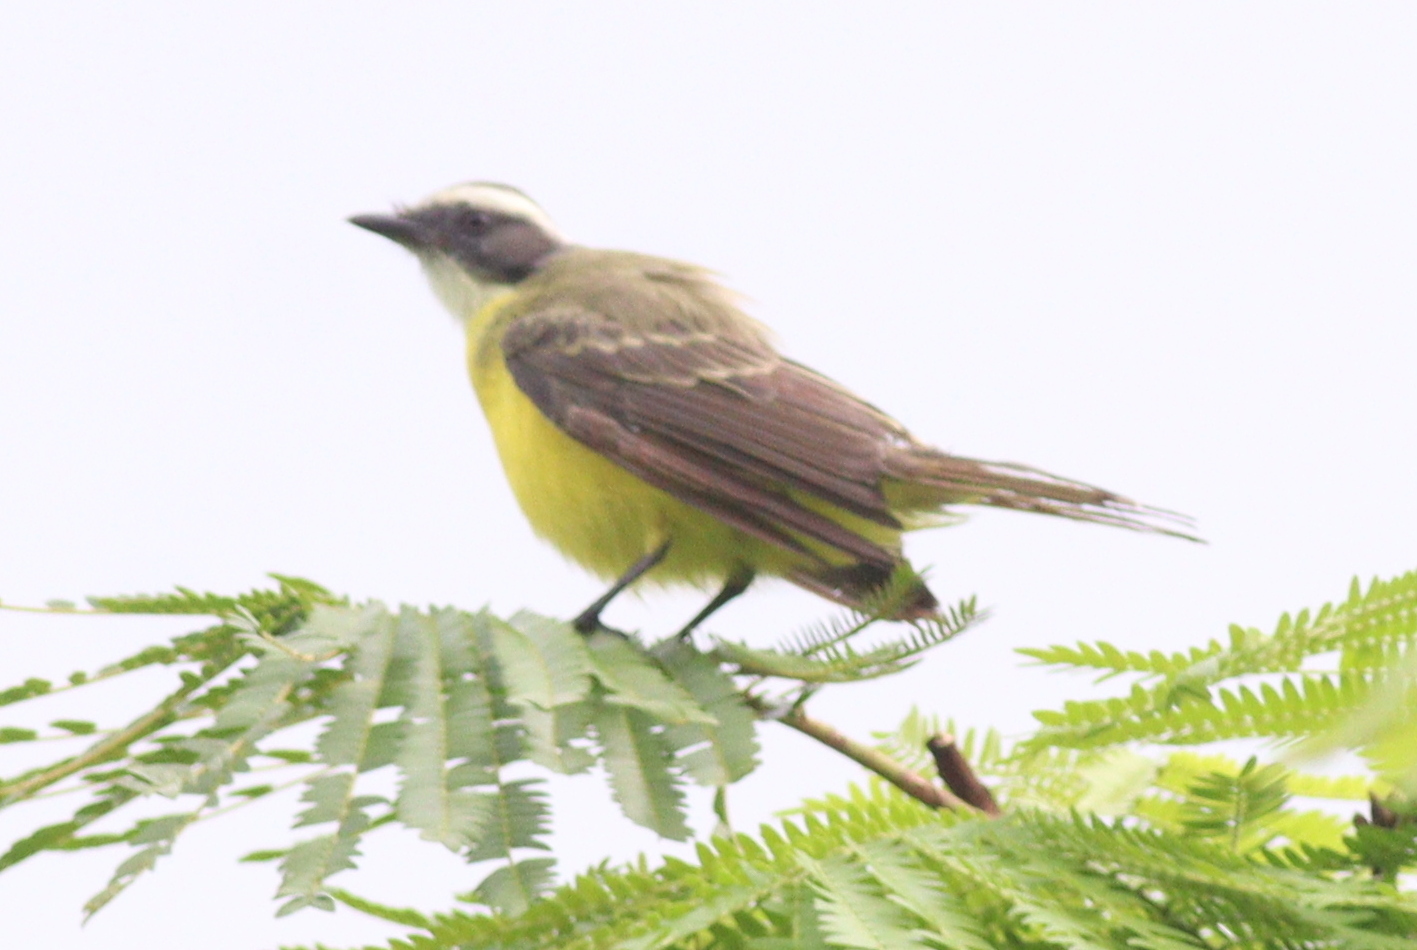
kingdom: Animalia
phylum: Chordata
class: Aves
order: Passeriformes
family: Tyrannidae
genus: Myiozetetes
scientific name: Myiozetetes similis
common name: Social flycatcher
